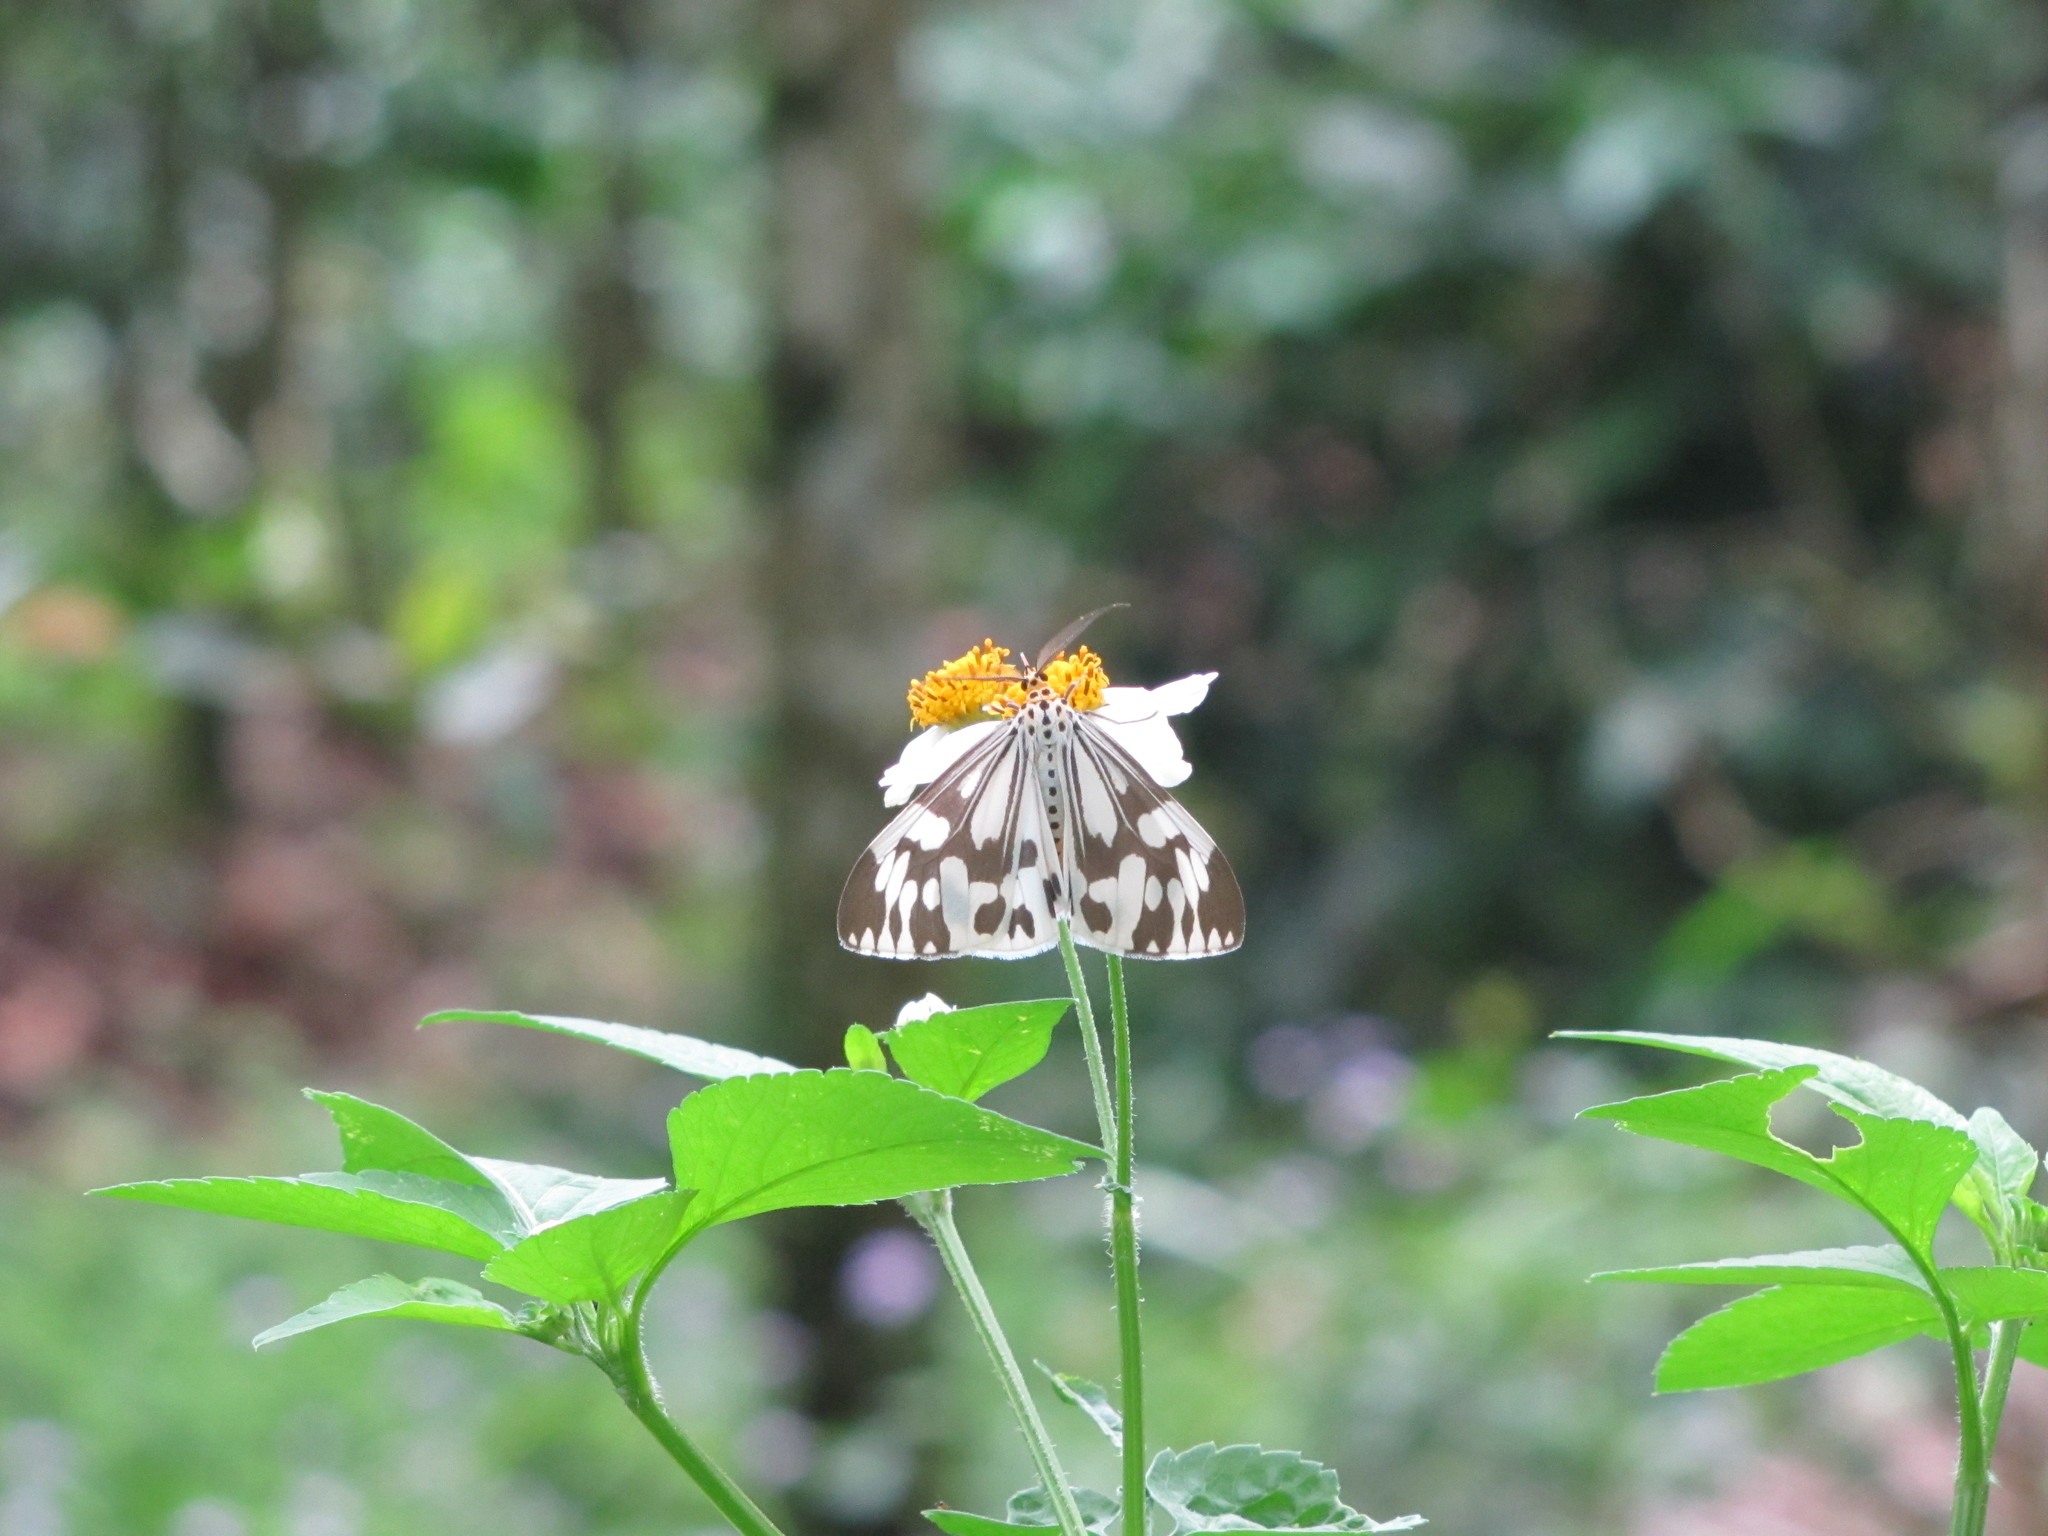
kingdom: Animalia
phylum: Arthropoda
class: Insecta
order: Lepidoptera
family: Erebidae
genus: Nyctemera
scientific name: Nyctemera adversata
